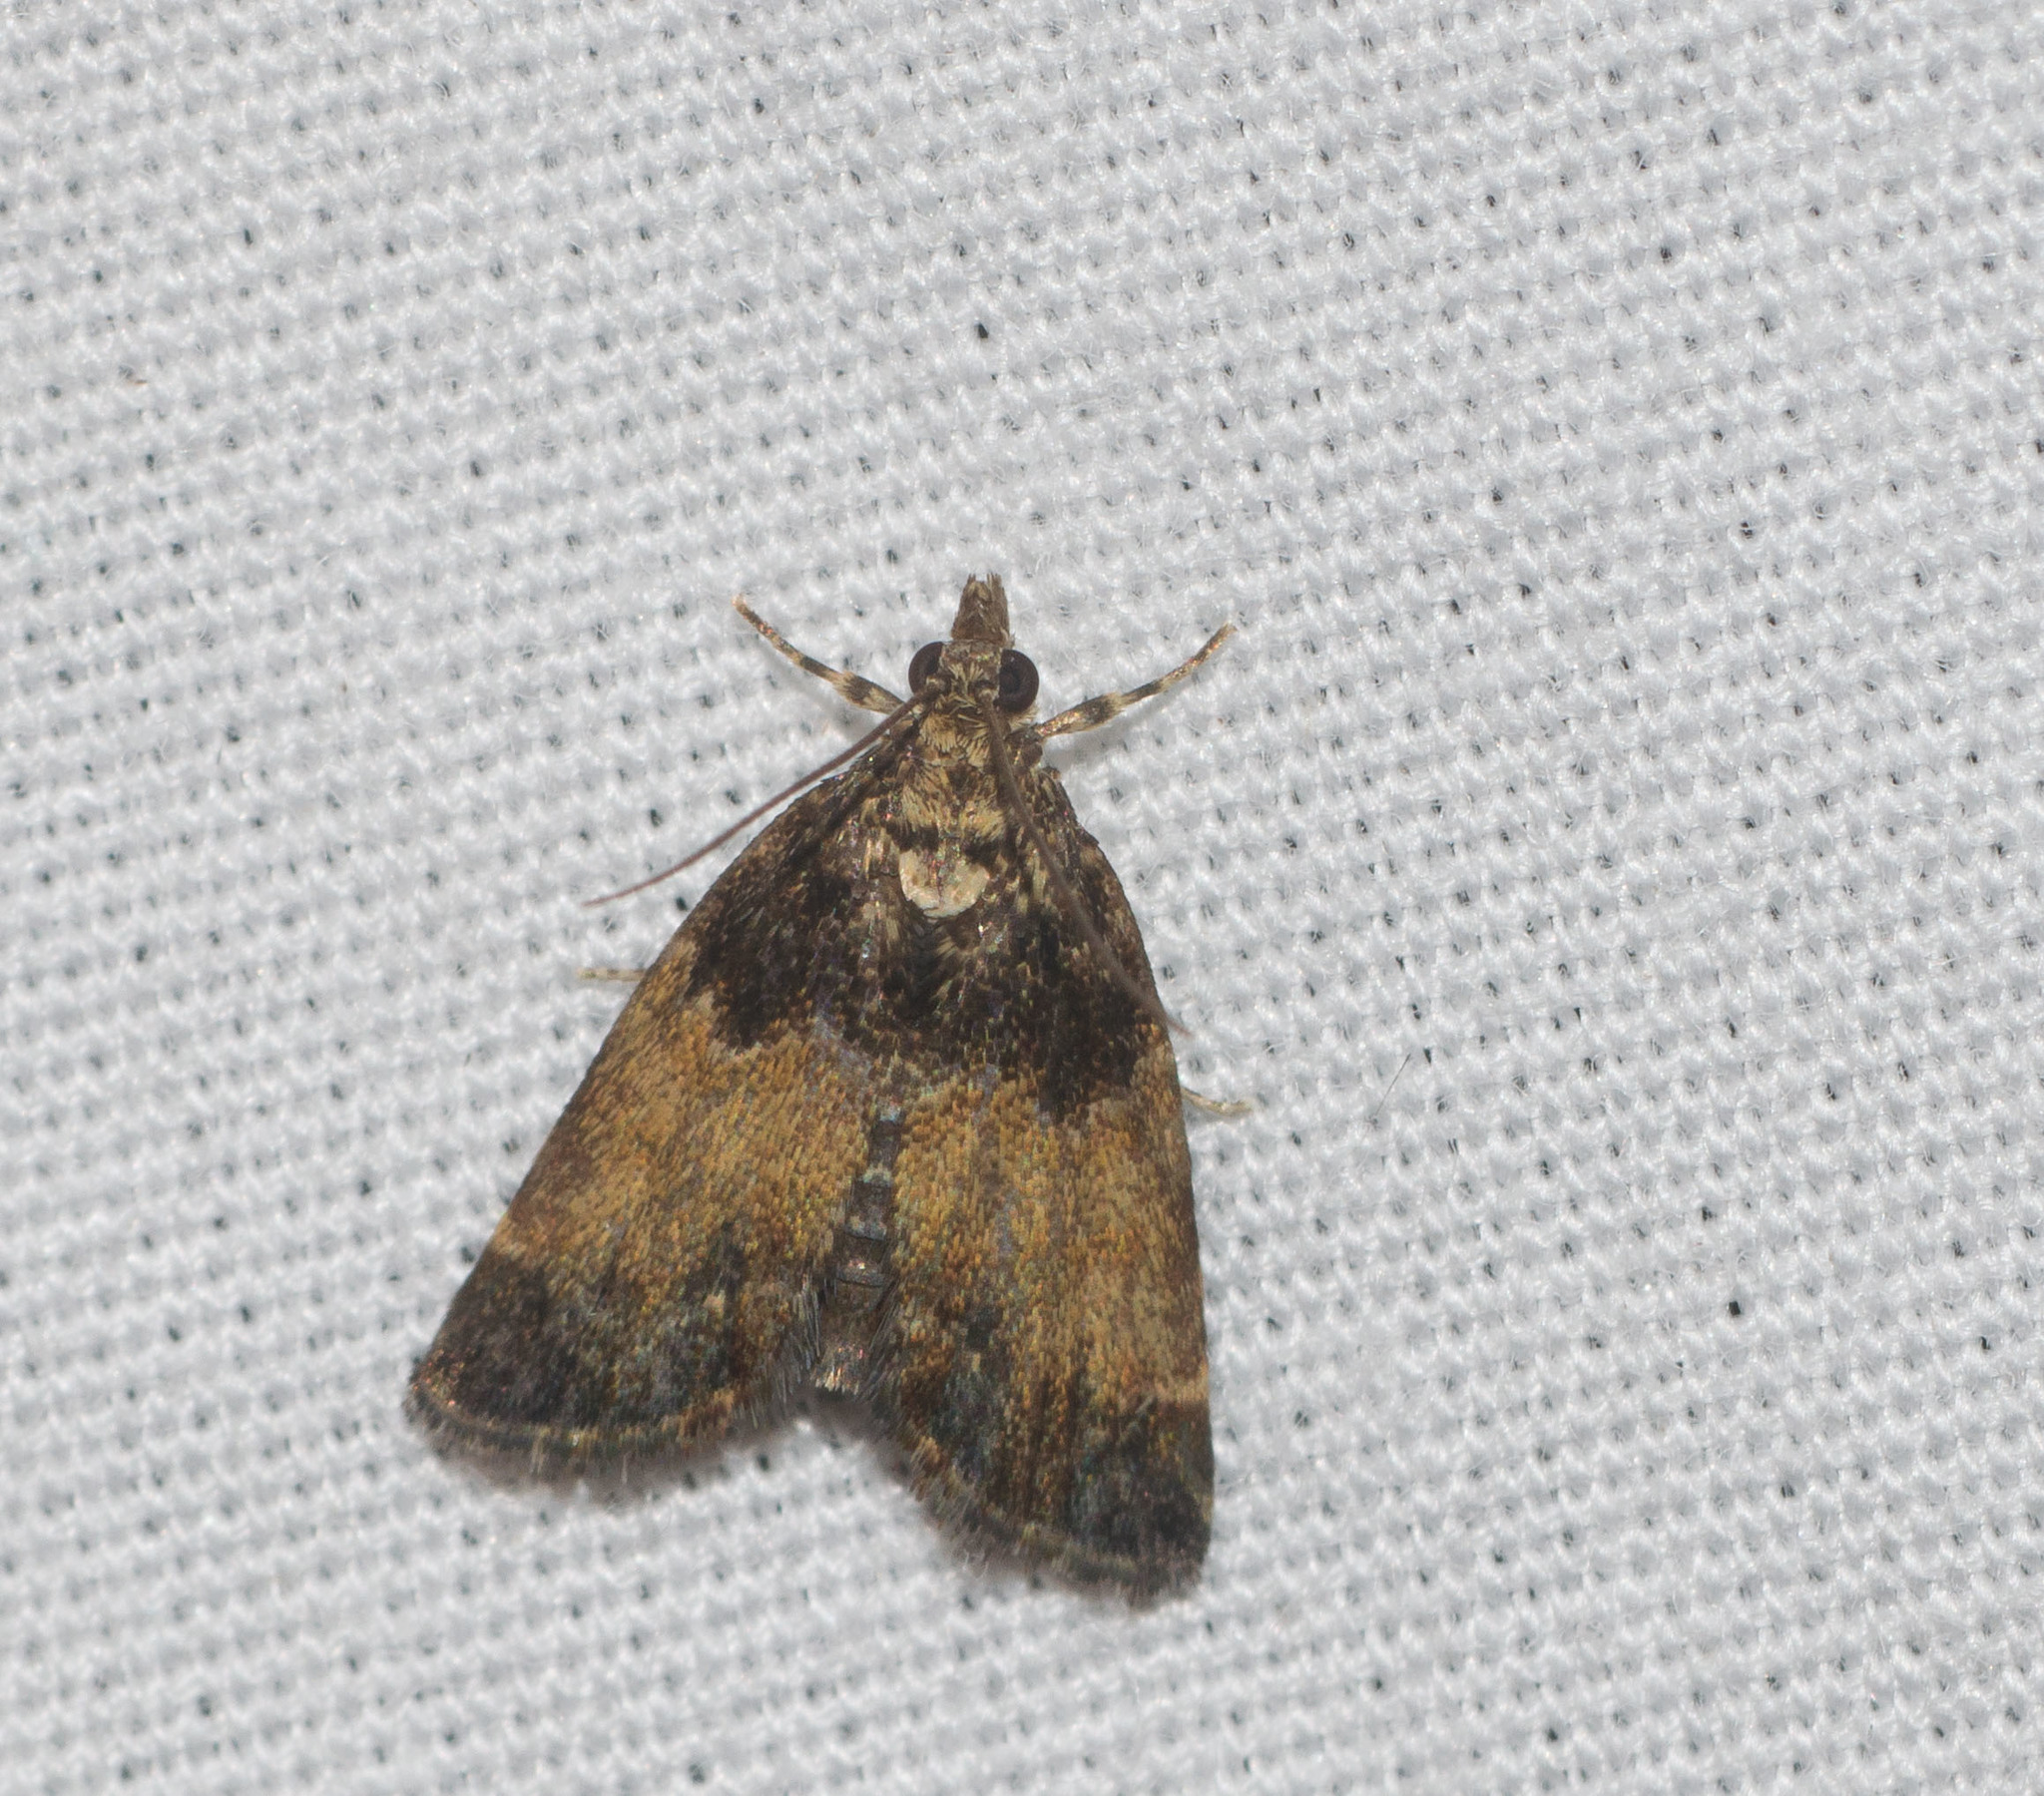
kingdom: Animalia
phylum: Arthropoda
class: Insecta
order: Lepidoptera
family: Crambidae
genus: Mestolobes
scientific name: Mestolobes abnormis
